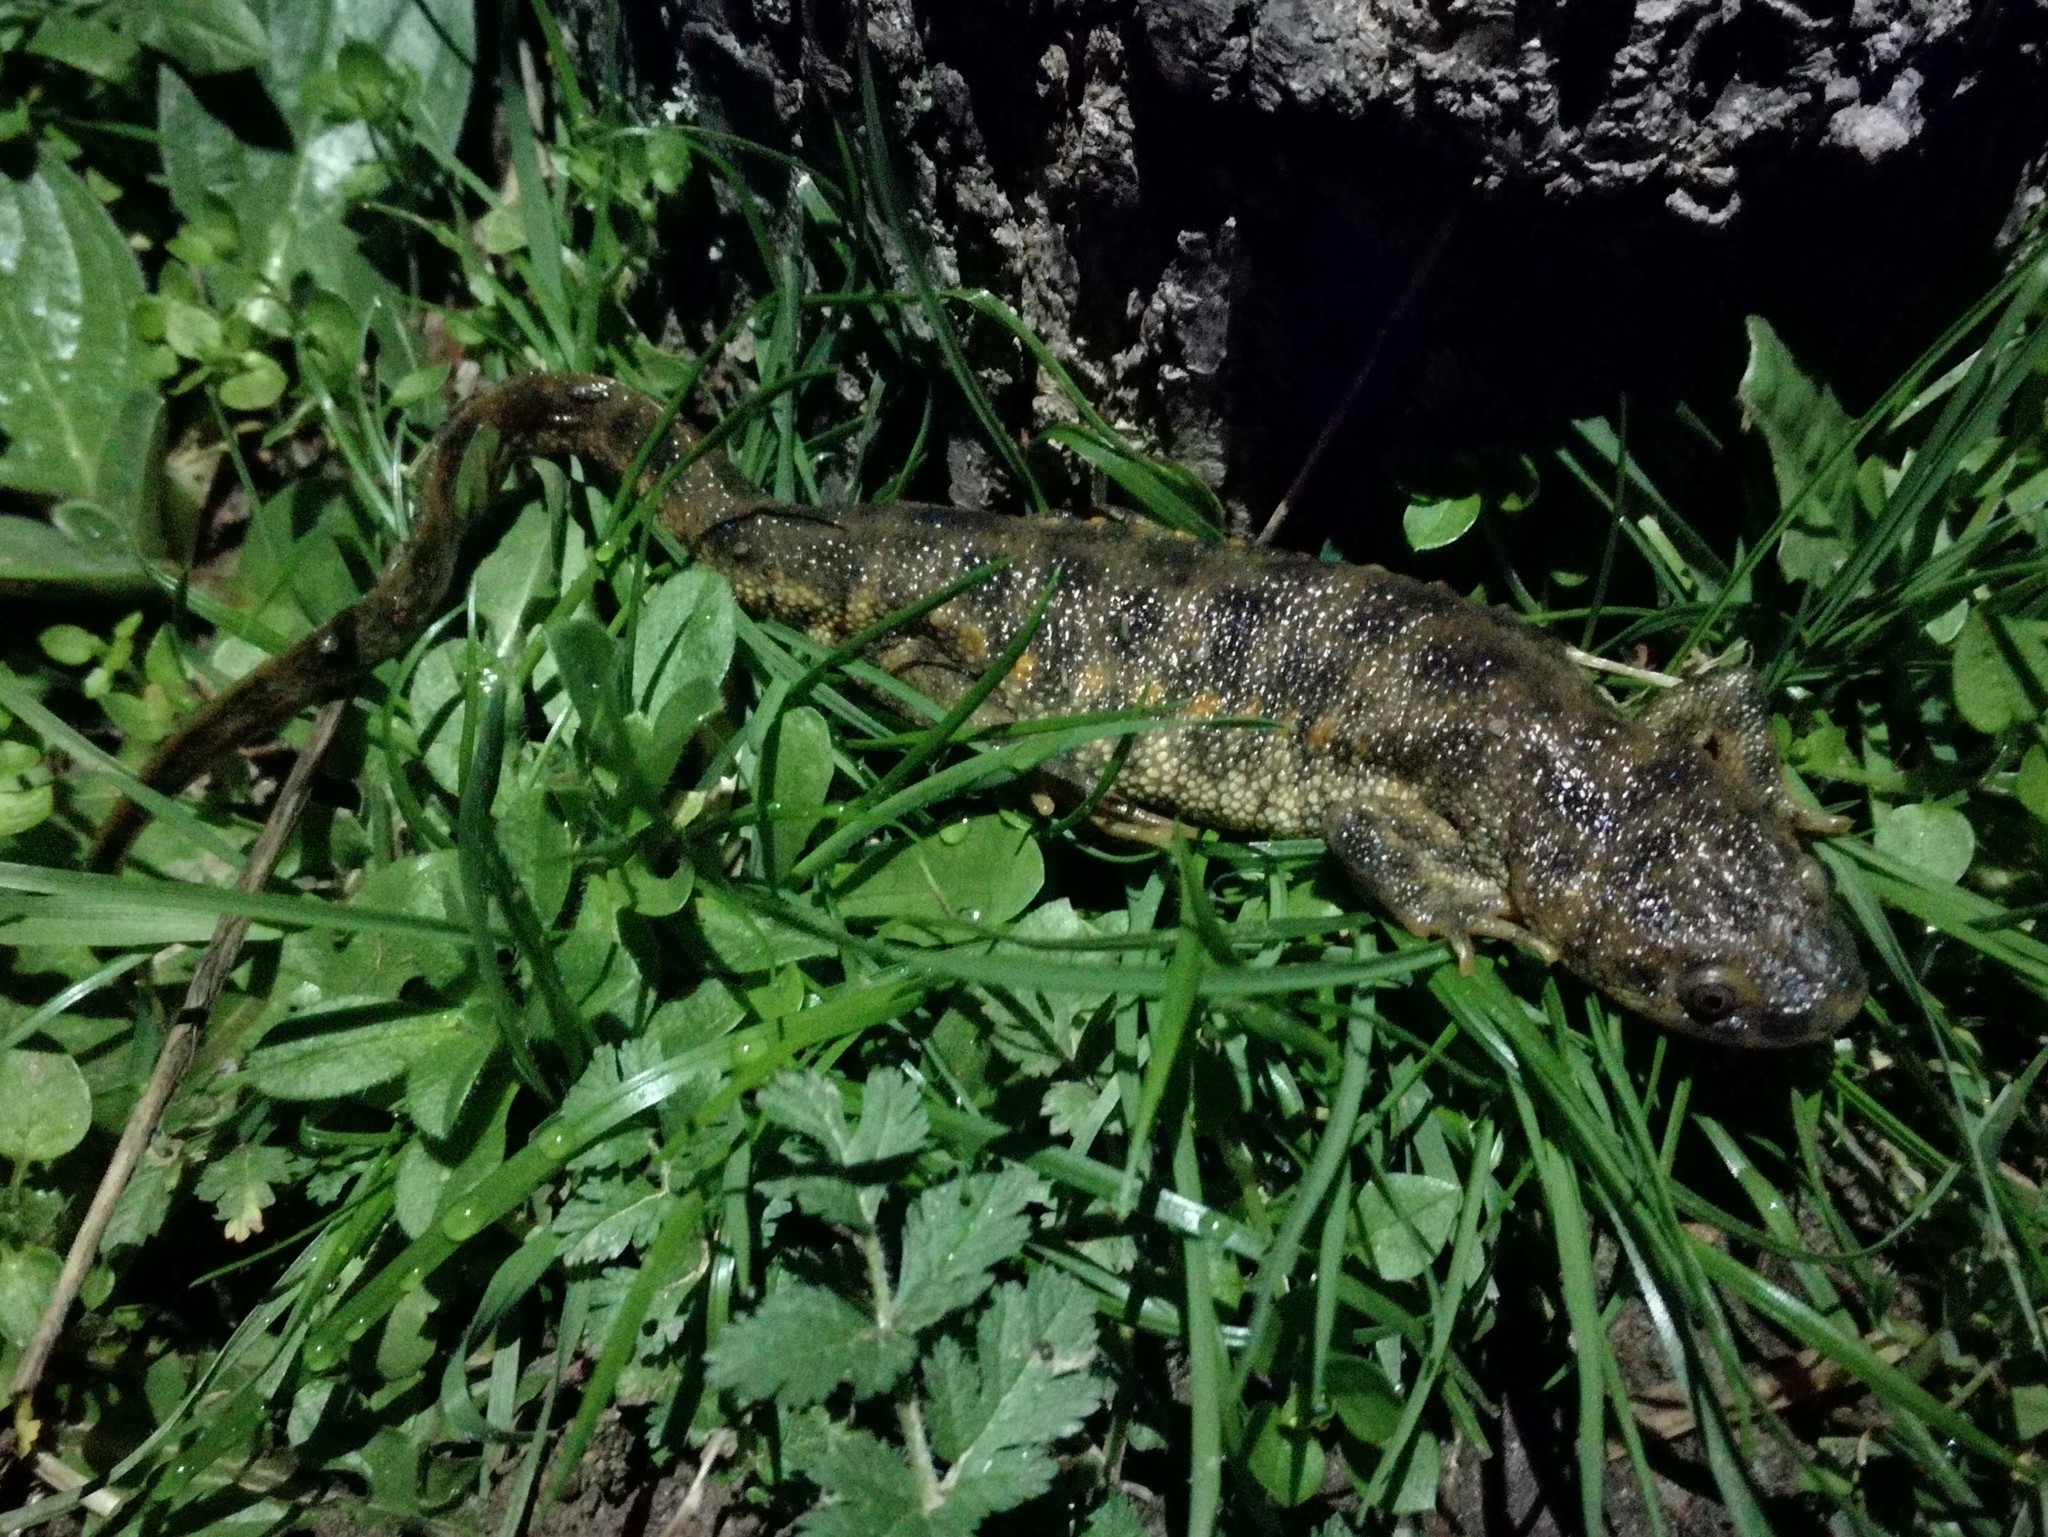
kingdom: Animalia
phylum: Chordata
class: Amphibia
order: Caudata
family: Salamandridae
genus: Pleurodeles
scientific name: Pleurodeles waltl
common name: Iberian ribbed newt
